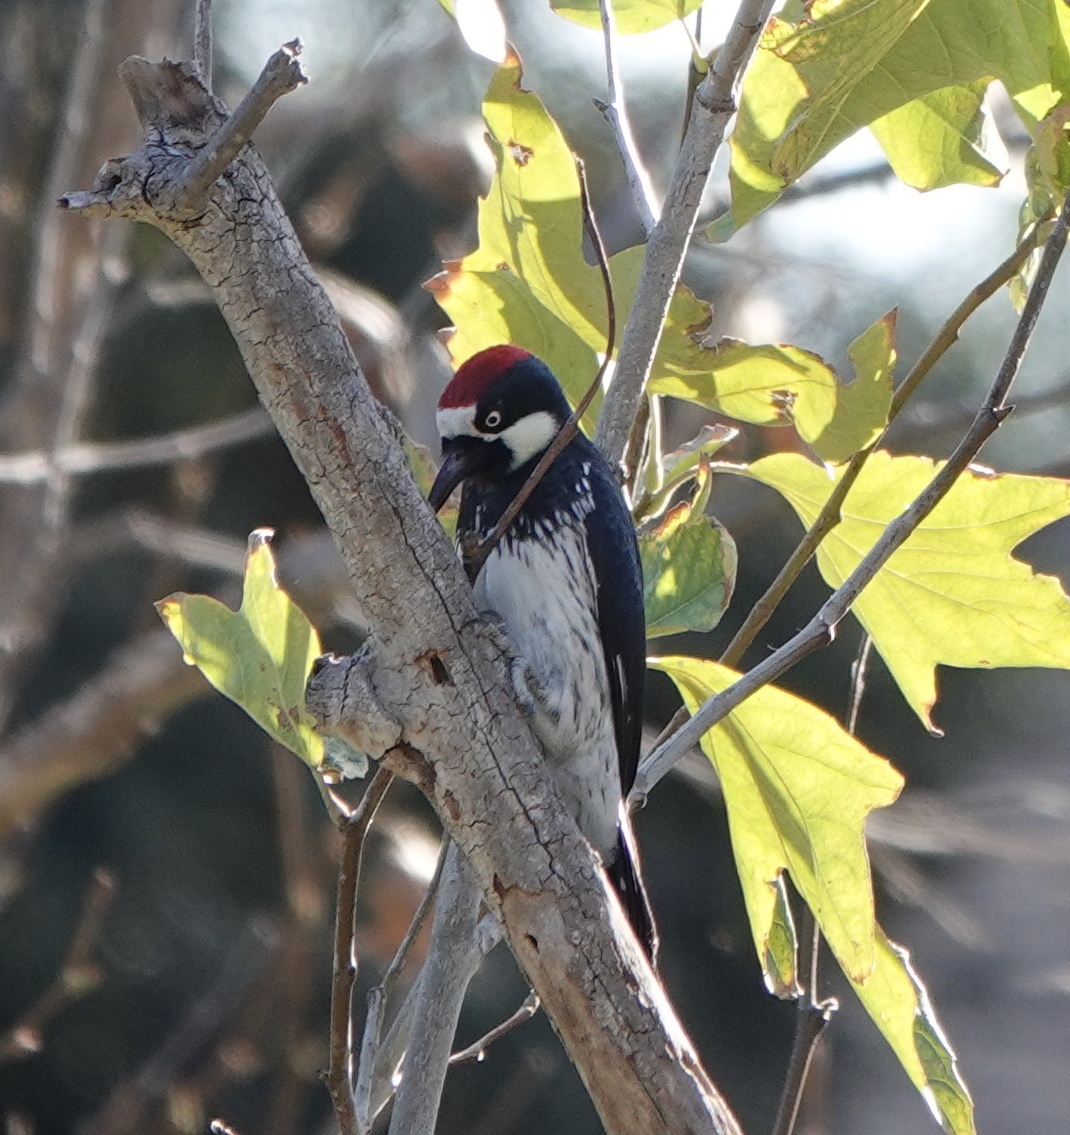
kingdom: Animalia
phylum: Chordata
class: Aves
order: Piciformes
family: Picidae
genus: Melanerpes
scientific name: Melanerpes formicivorus
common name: Acorn woodpecker
